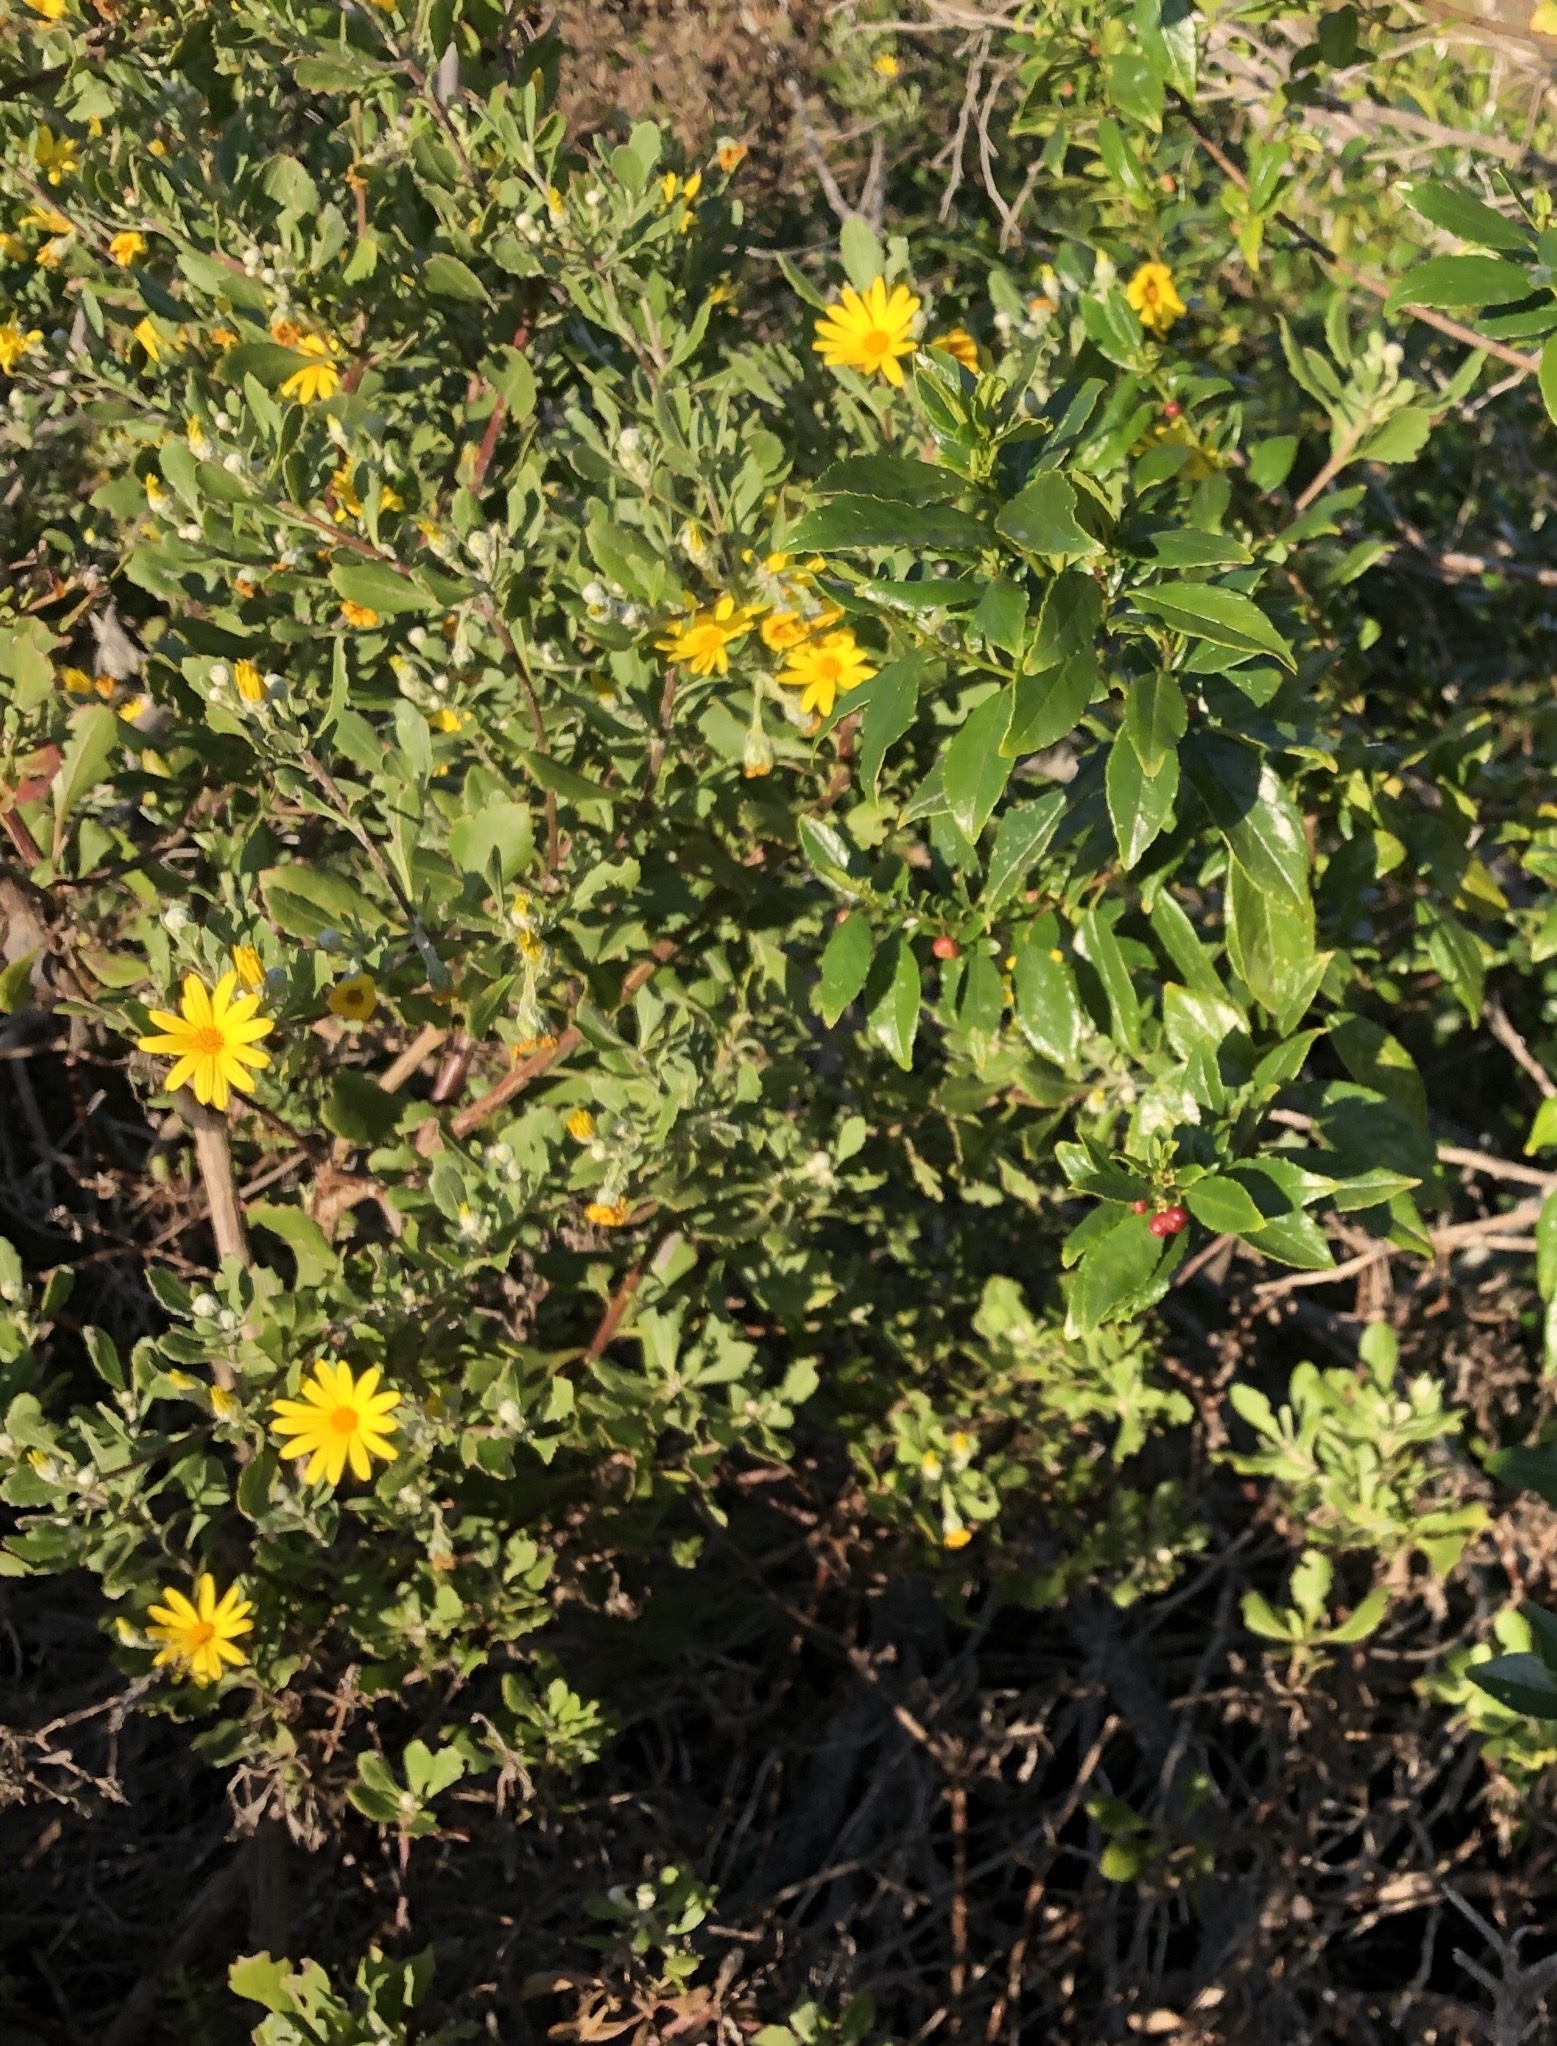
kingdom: Plantae
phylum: Tracheophyta
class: Magnoliopsida
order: Asterales
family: Asteraceae
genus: Osteospermum
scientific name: Osteospermum moniliferum
